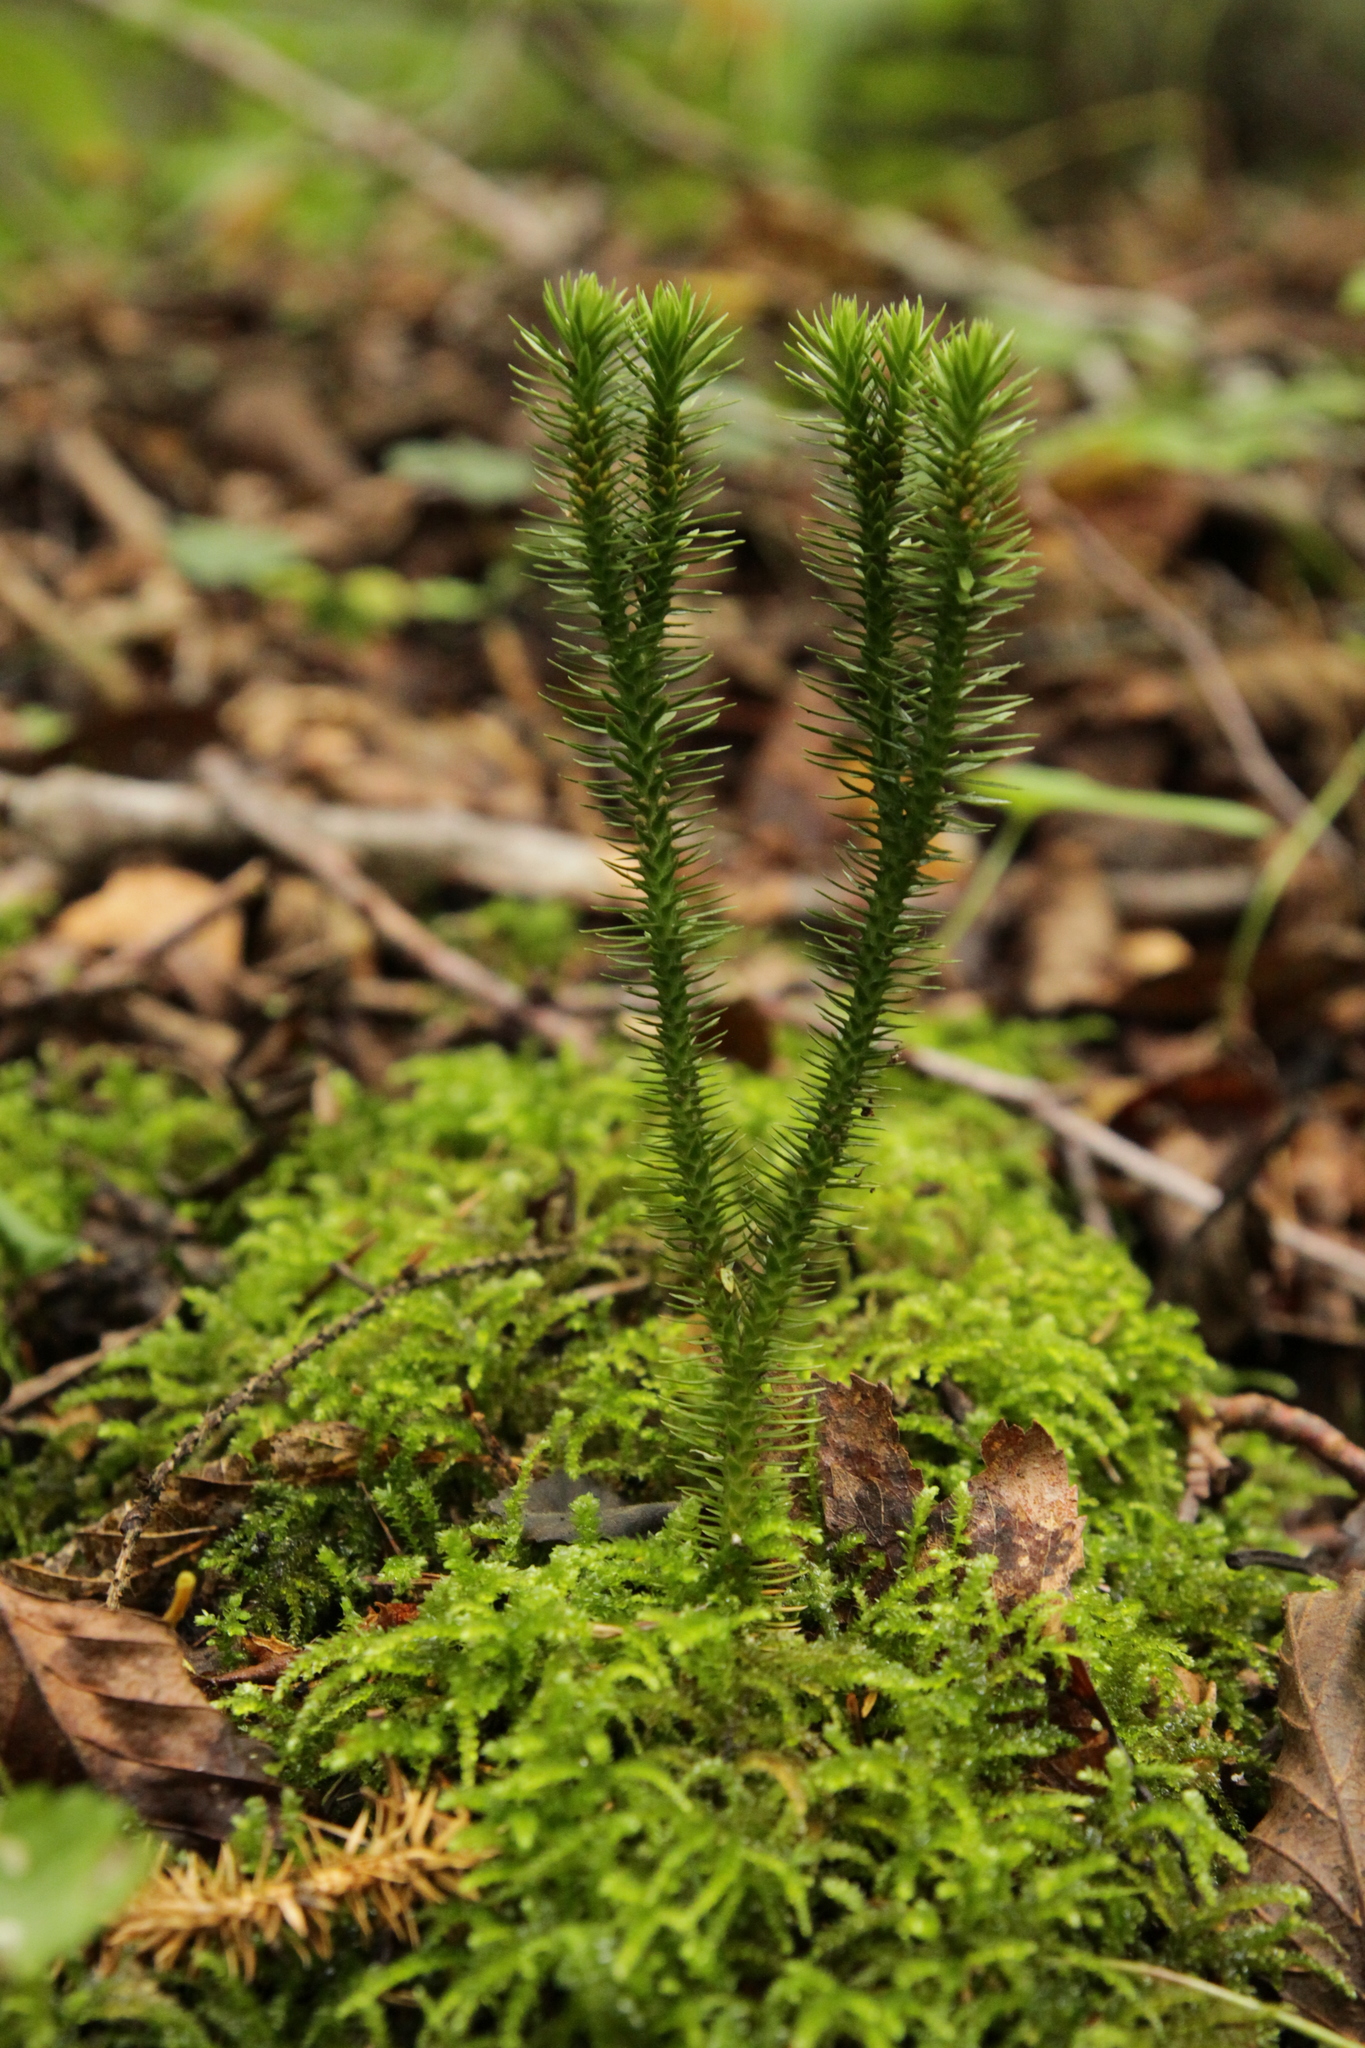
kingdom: Plantae
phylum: Tracheophyta
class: Lycopodiopsida
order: Lycopodiales
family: Lycopodiaceae
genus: Huperzia
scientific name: Huperzia selago
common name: Northern firmoss
